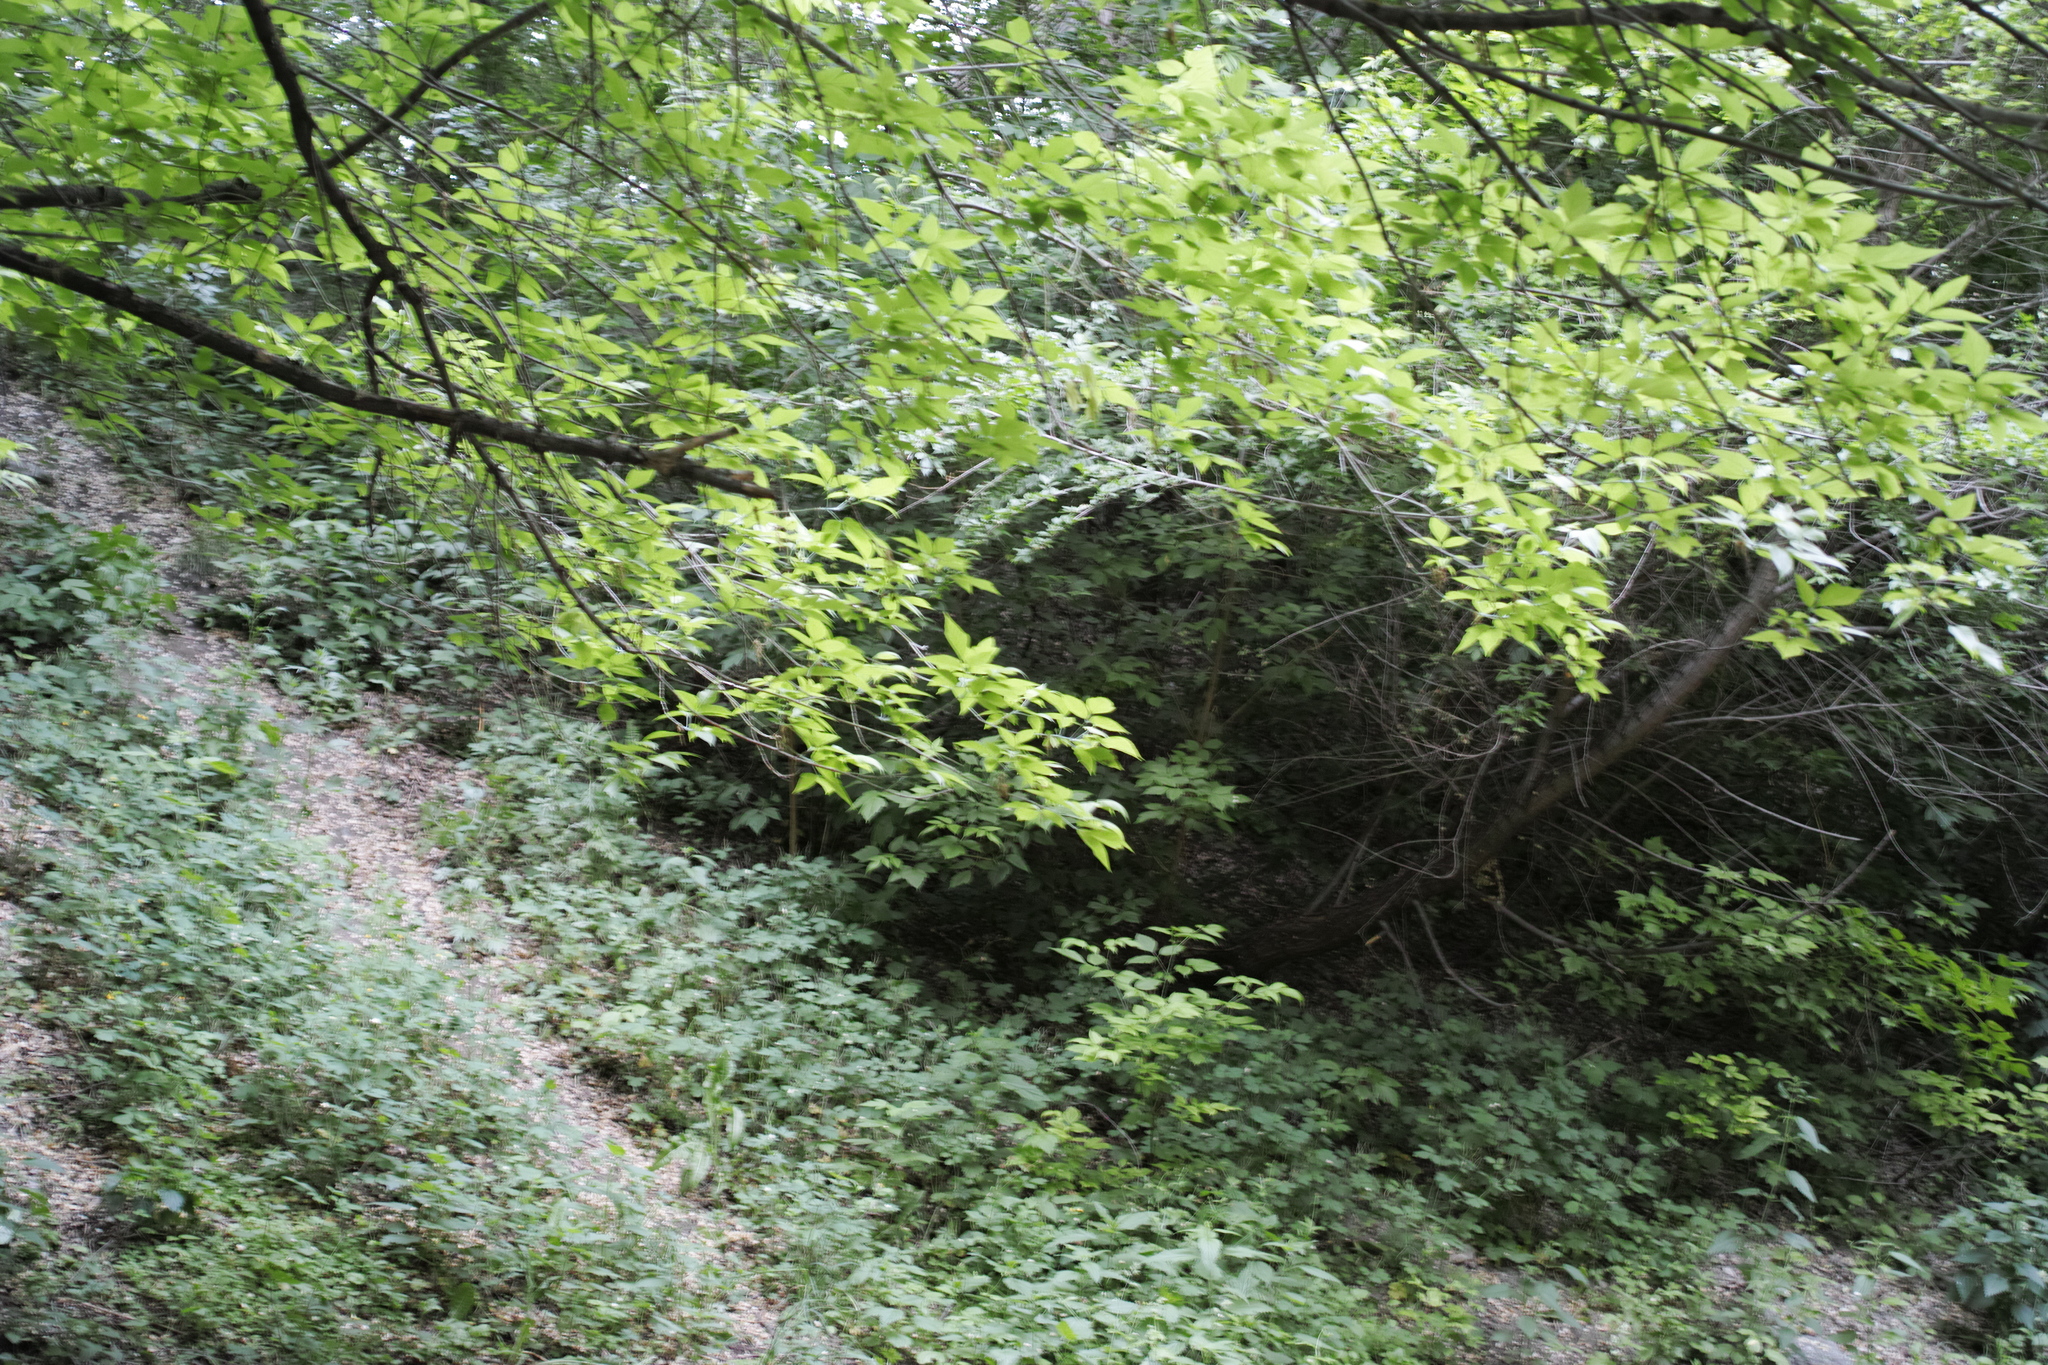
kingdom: Plantae
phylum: Tracheophyta
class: Magnoliopsida
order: Sapindales
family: Sapindaceae
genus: Acer
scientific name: Acer negundo
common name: Ashleaf maple
